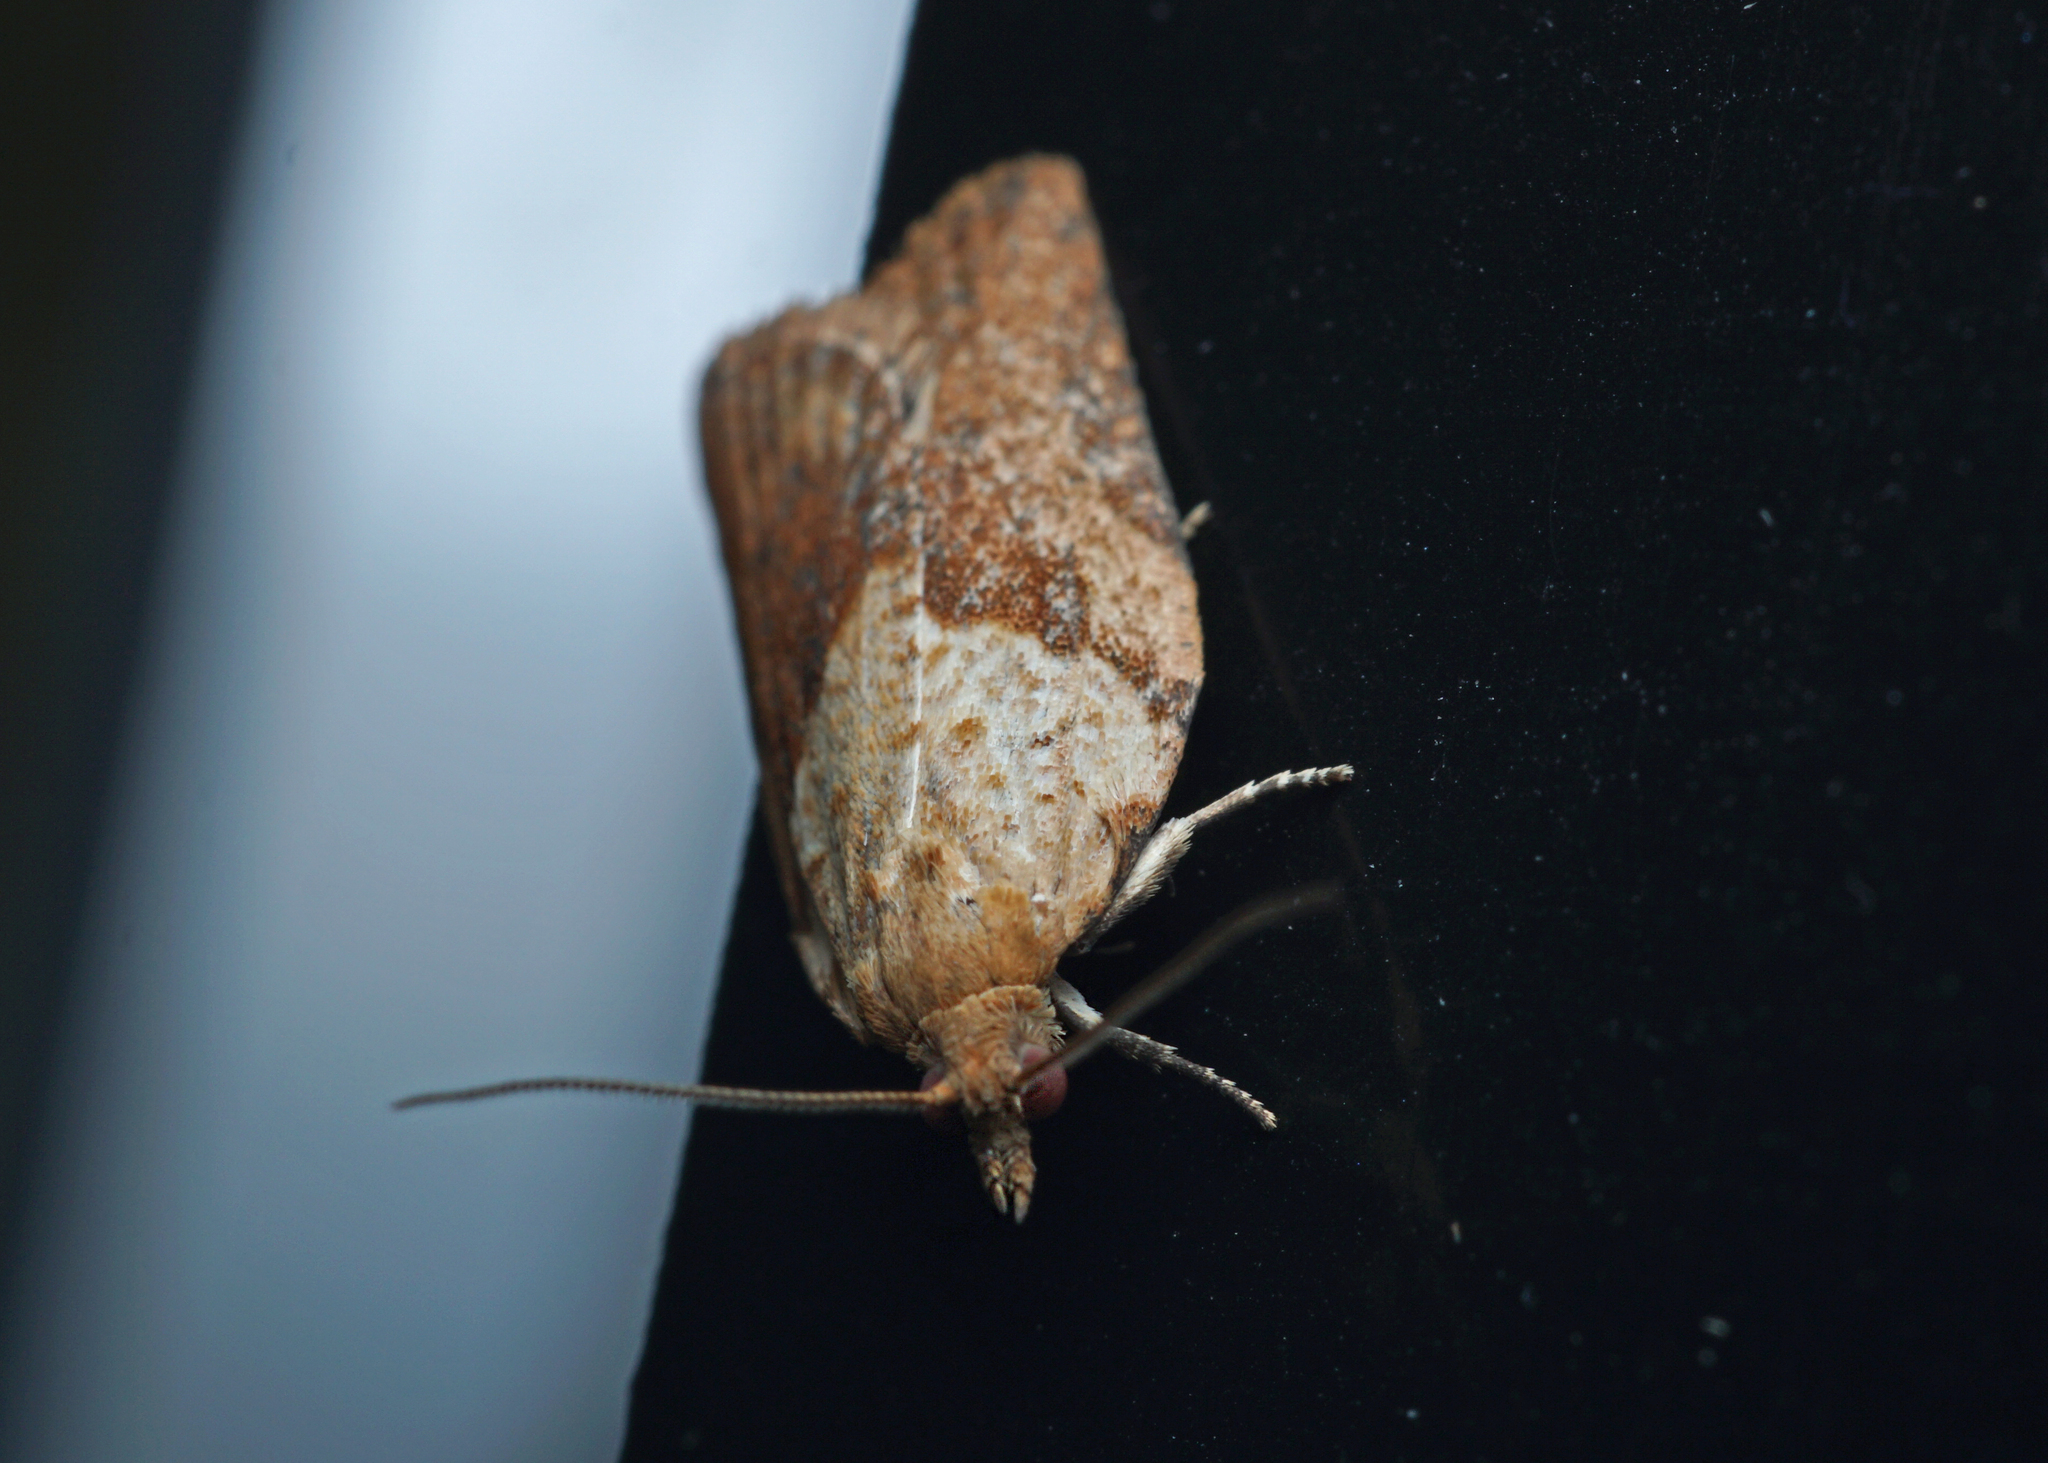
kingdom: Animalia
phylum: Arthropoda
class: Insecta
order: Lepidoptera
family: Tortricidae
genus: Epiphyas
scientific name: Epiphyas postvittana
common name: Light brown apple moth
